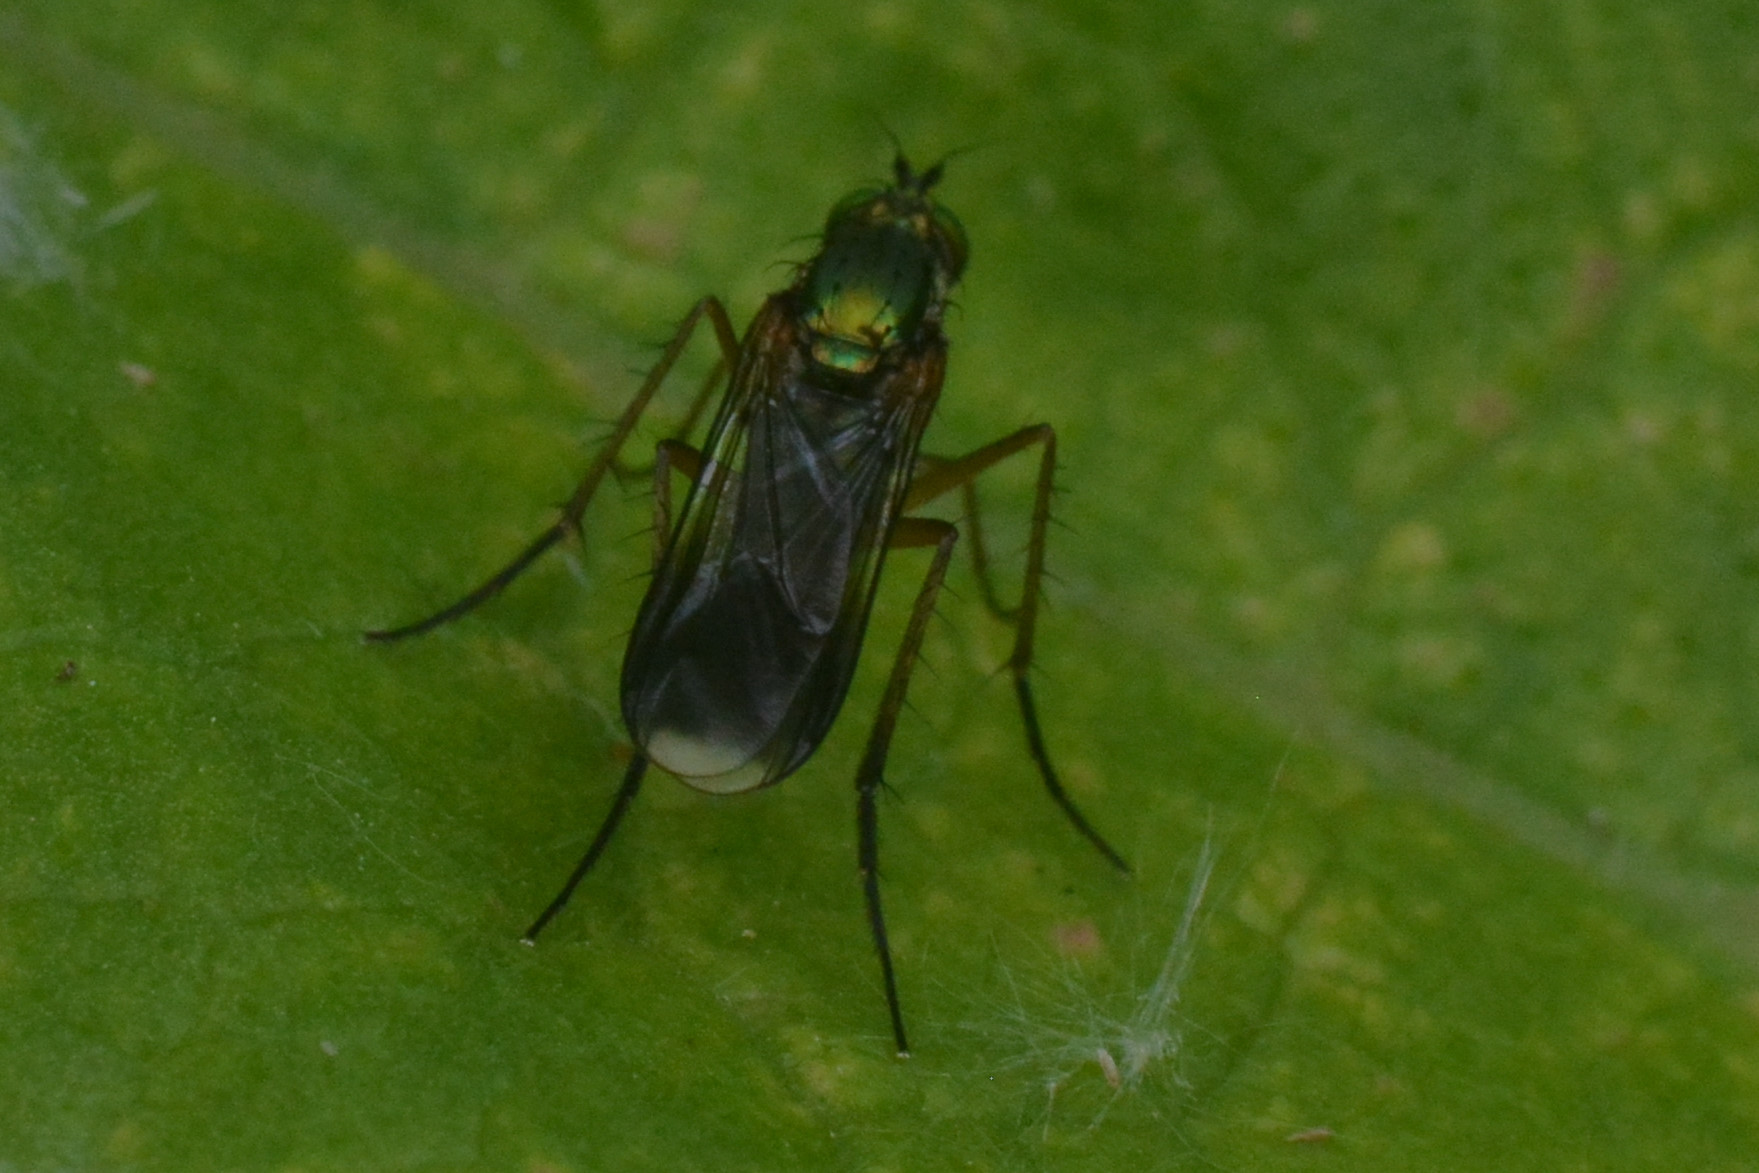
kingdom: Animalia
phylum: Arthropoda
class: Insecta
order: Diptera
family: Dolichopodidae
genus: Poecilobothrus
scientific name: Poecilobothrus nobilitatus
